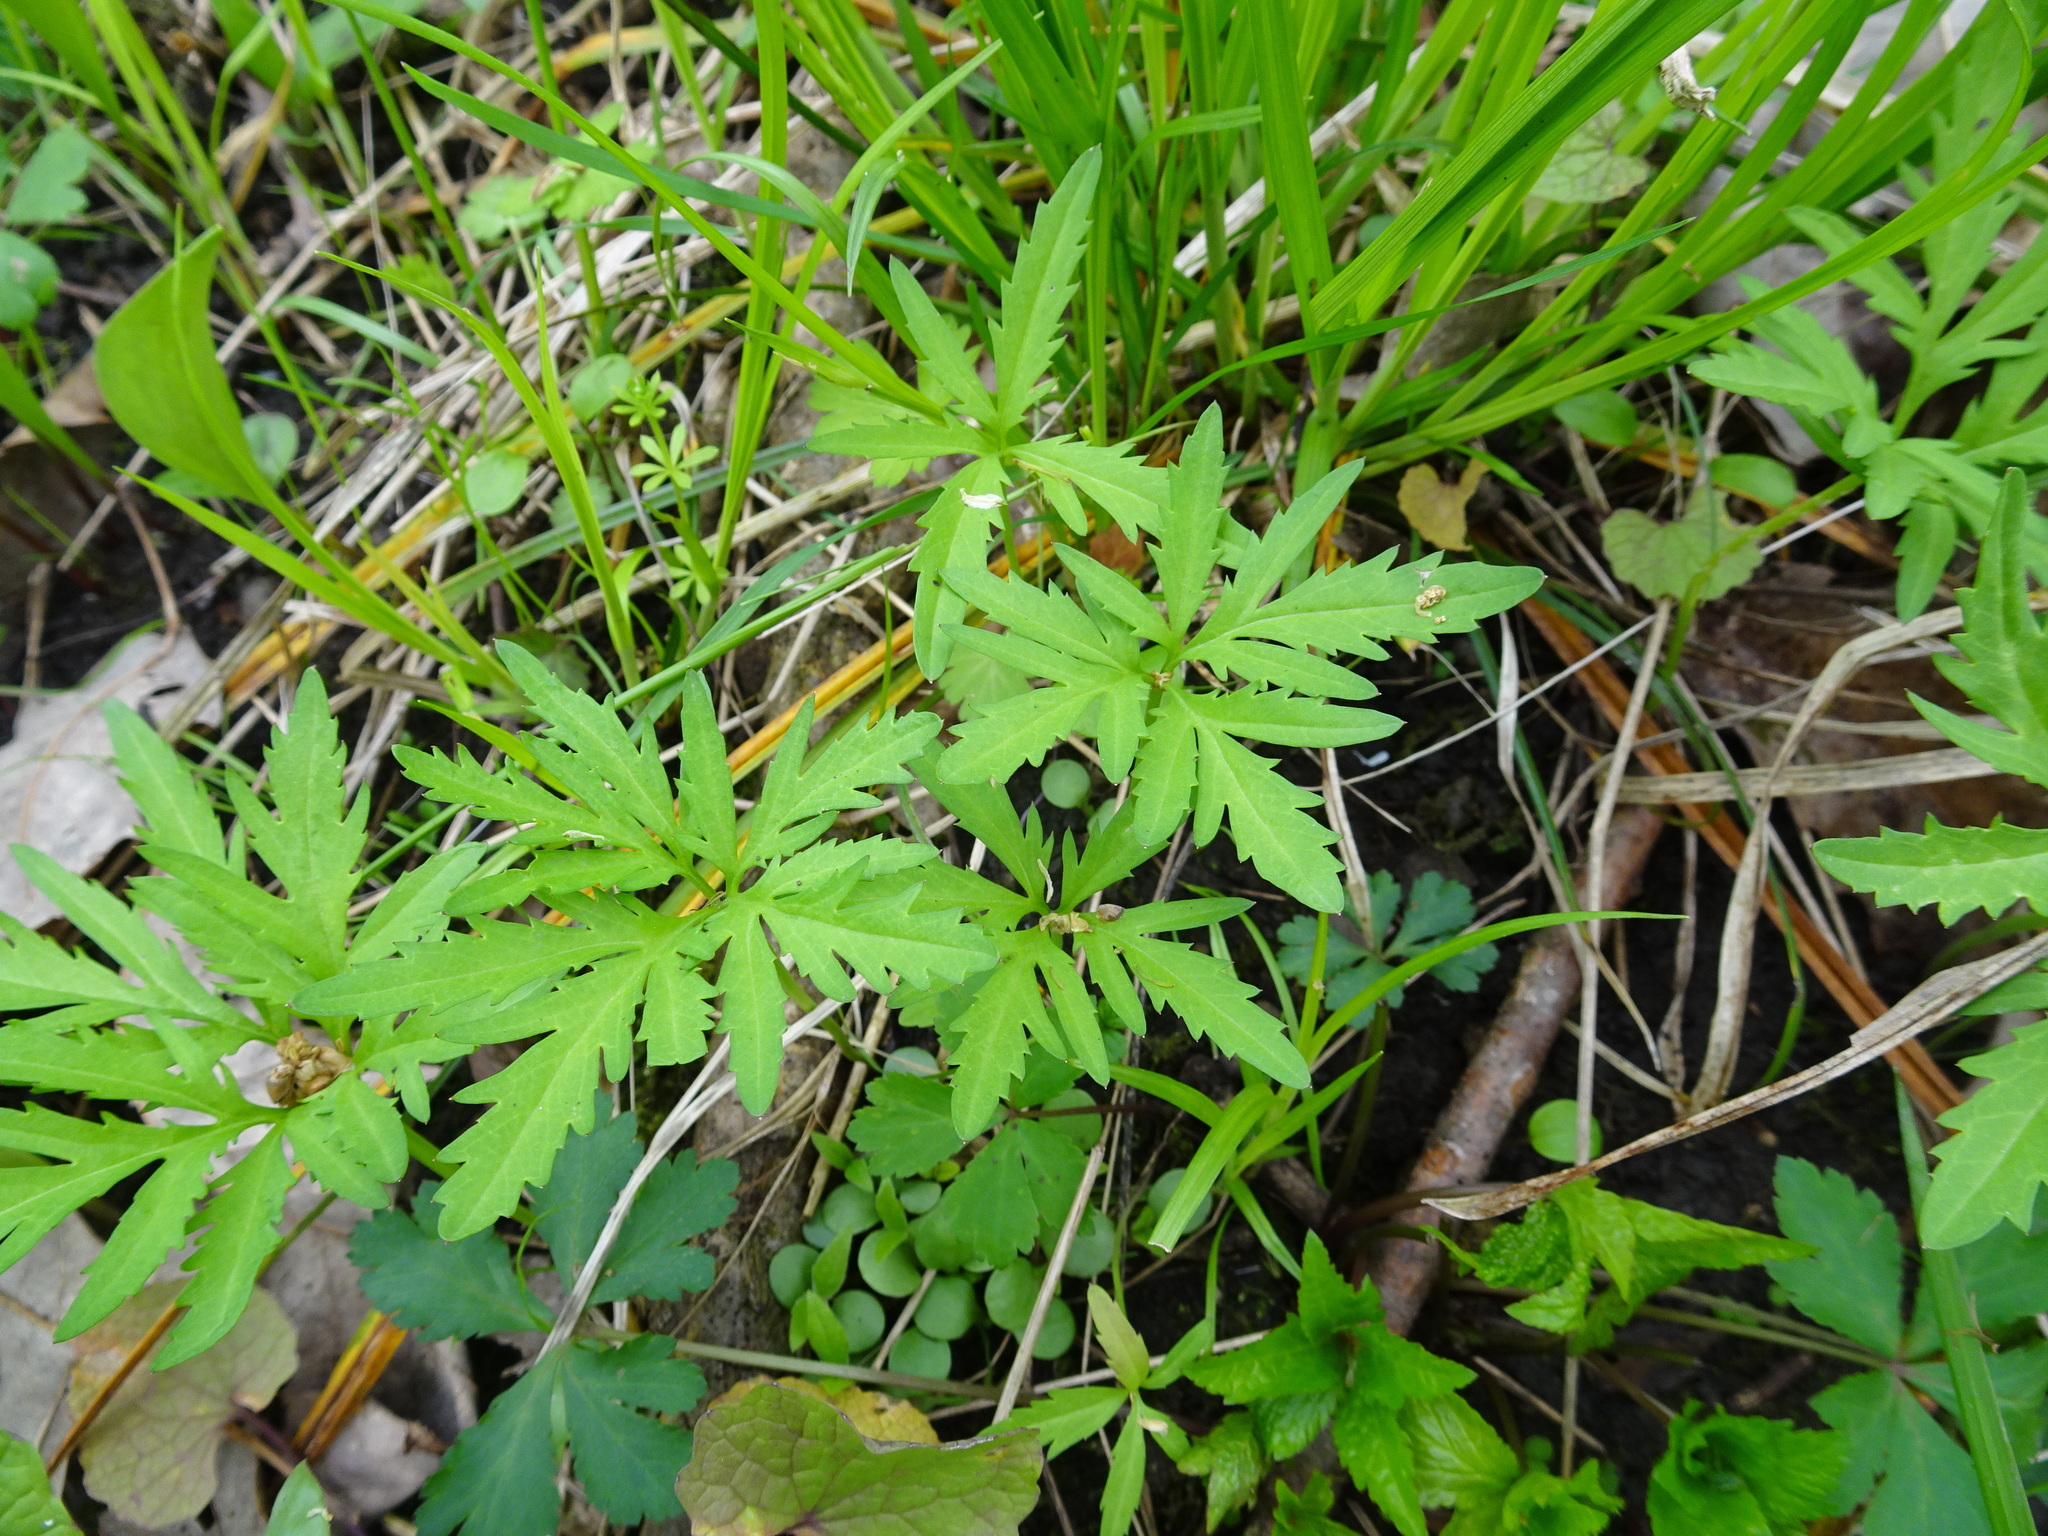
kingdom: Plantae
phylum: Tracheophyta
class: Magnoliopsida
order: Brassicales
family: Brassicaceae
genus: Cardamine
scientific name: Cardamine concatenata
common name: Cut-leaf toothcup
